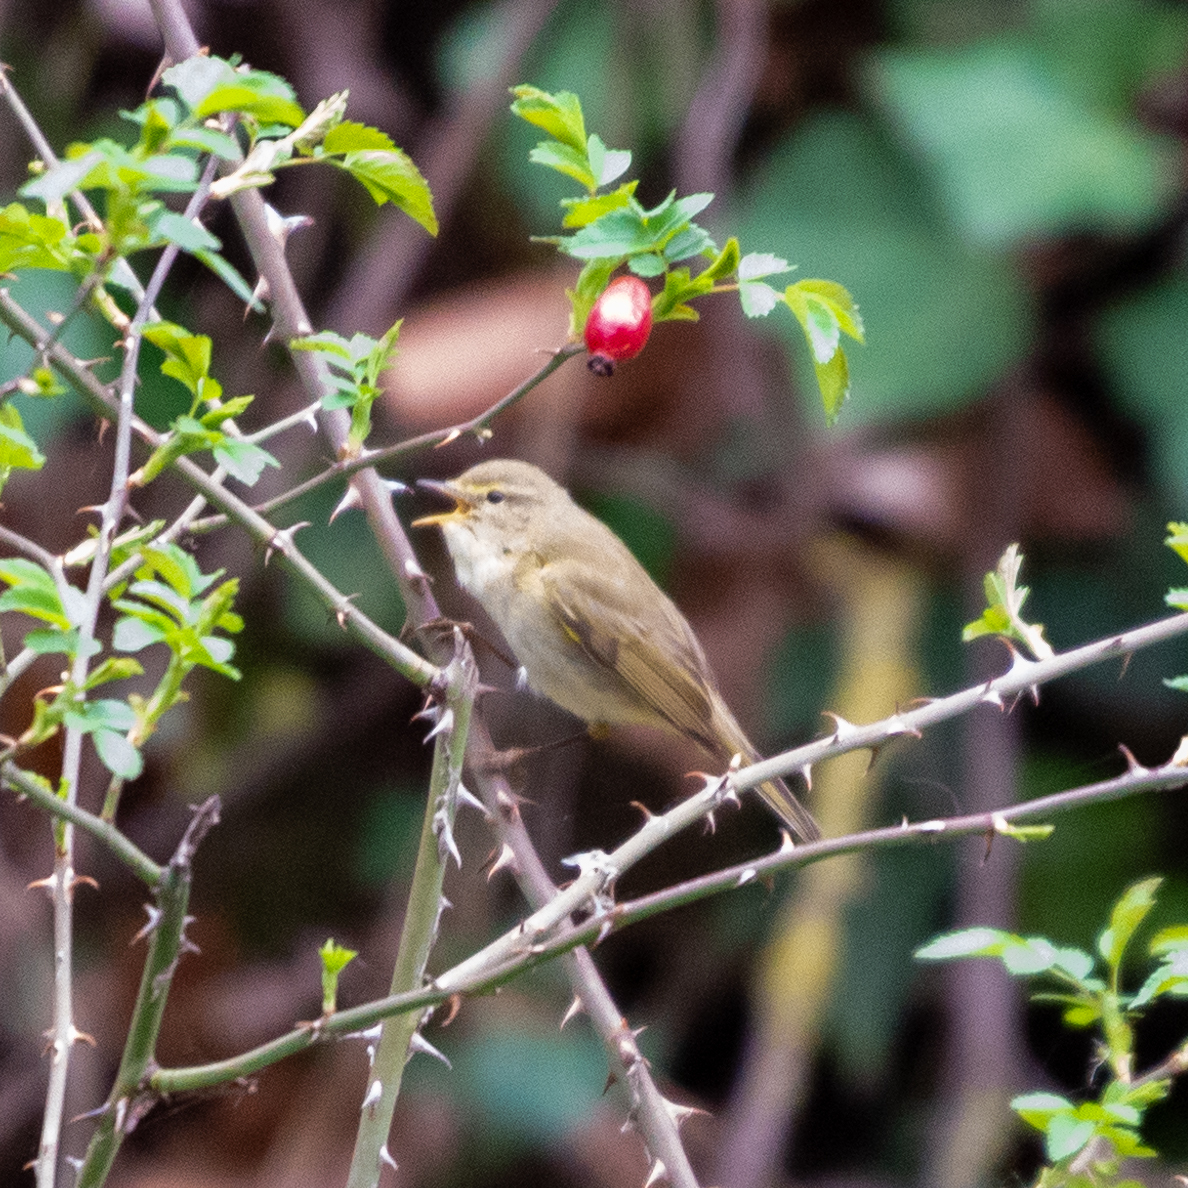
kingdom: Animalia
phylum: Chordata
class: Aves
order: Passeriformes
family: Phylloscopidae
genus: Phylloscopus
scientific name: Phylloscopus ibericus
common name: Iberian chiffchaff
